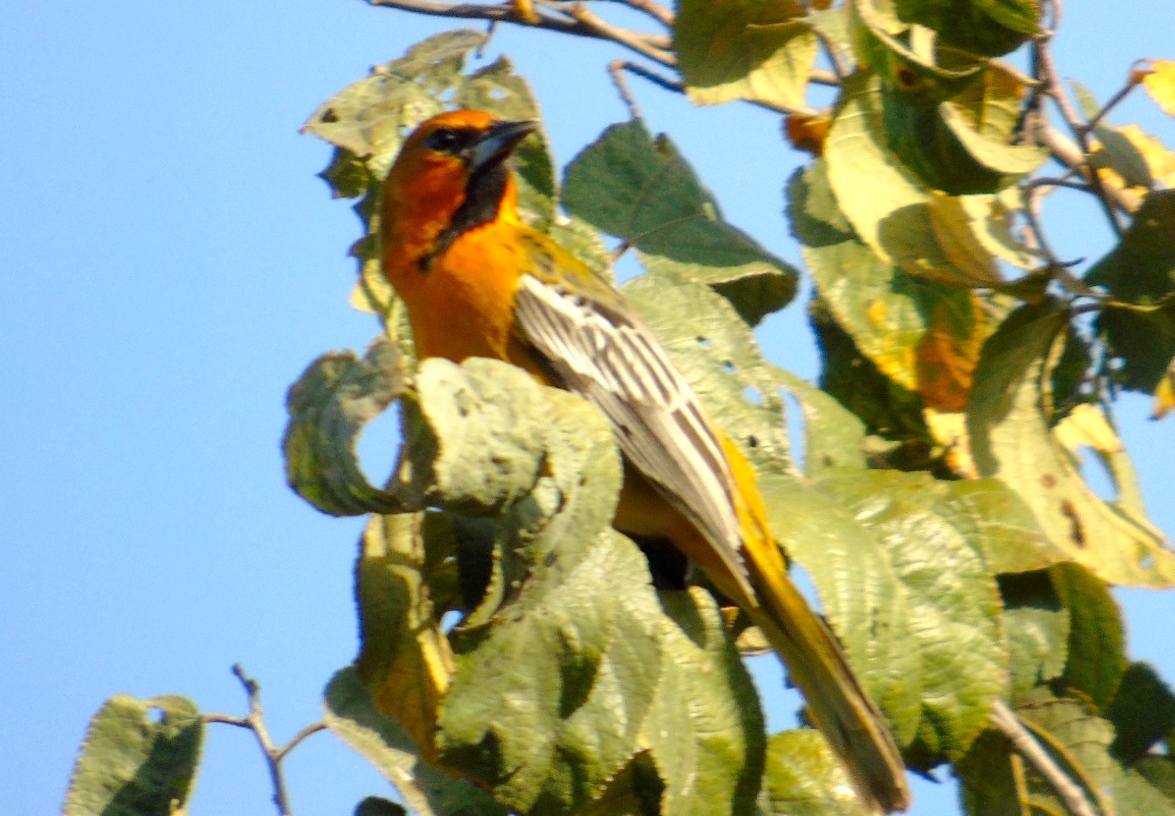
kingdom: Animalia
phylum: Chordata
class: Aves
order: Passeriformes
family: Icteridae
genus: Icterus
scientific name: Icterus pustulatus
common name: Streak-backed oriole
